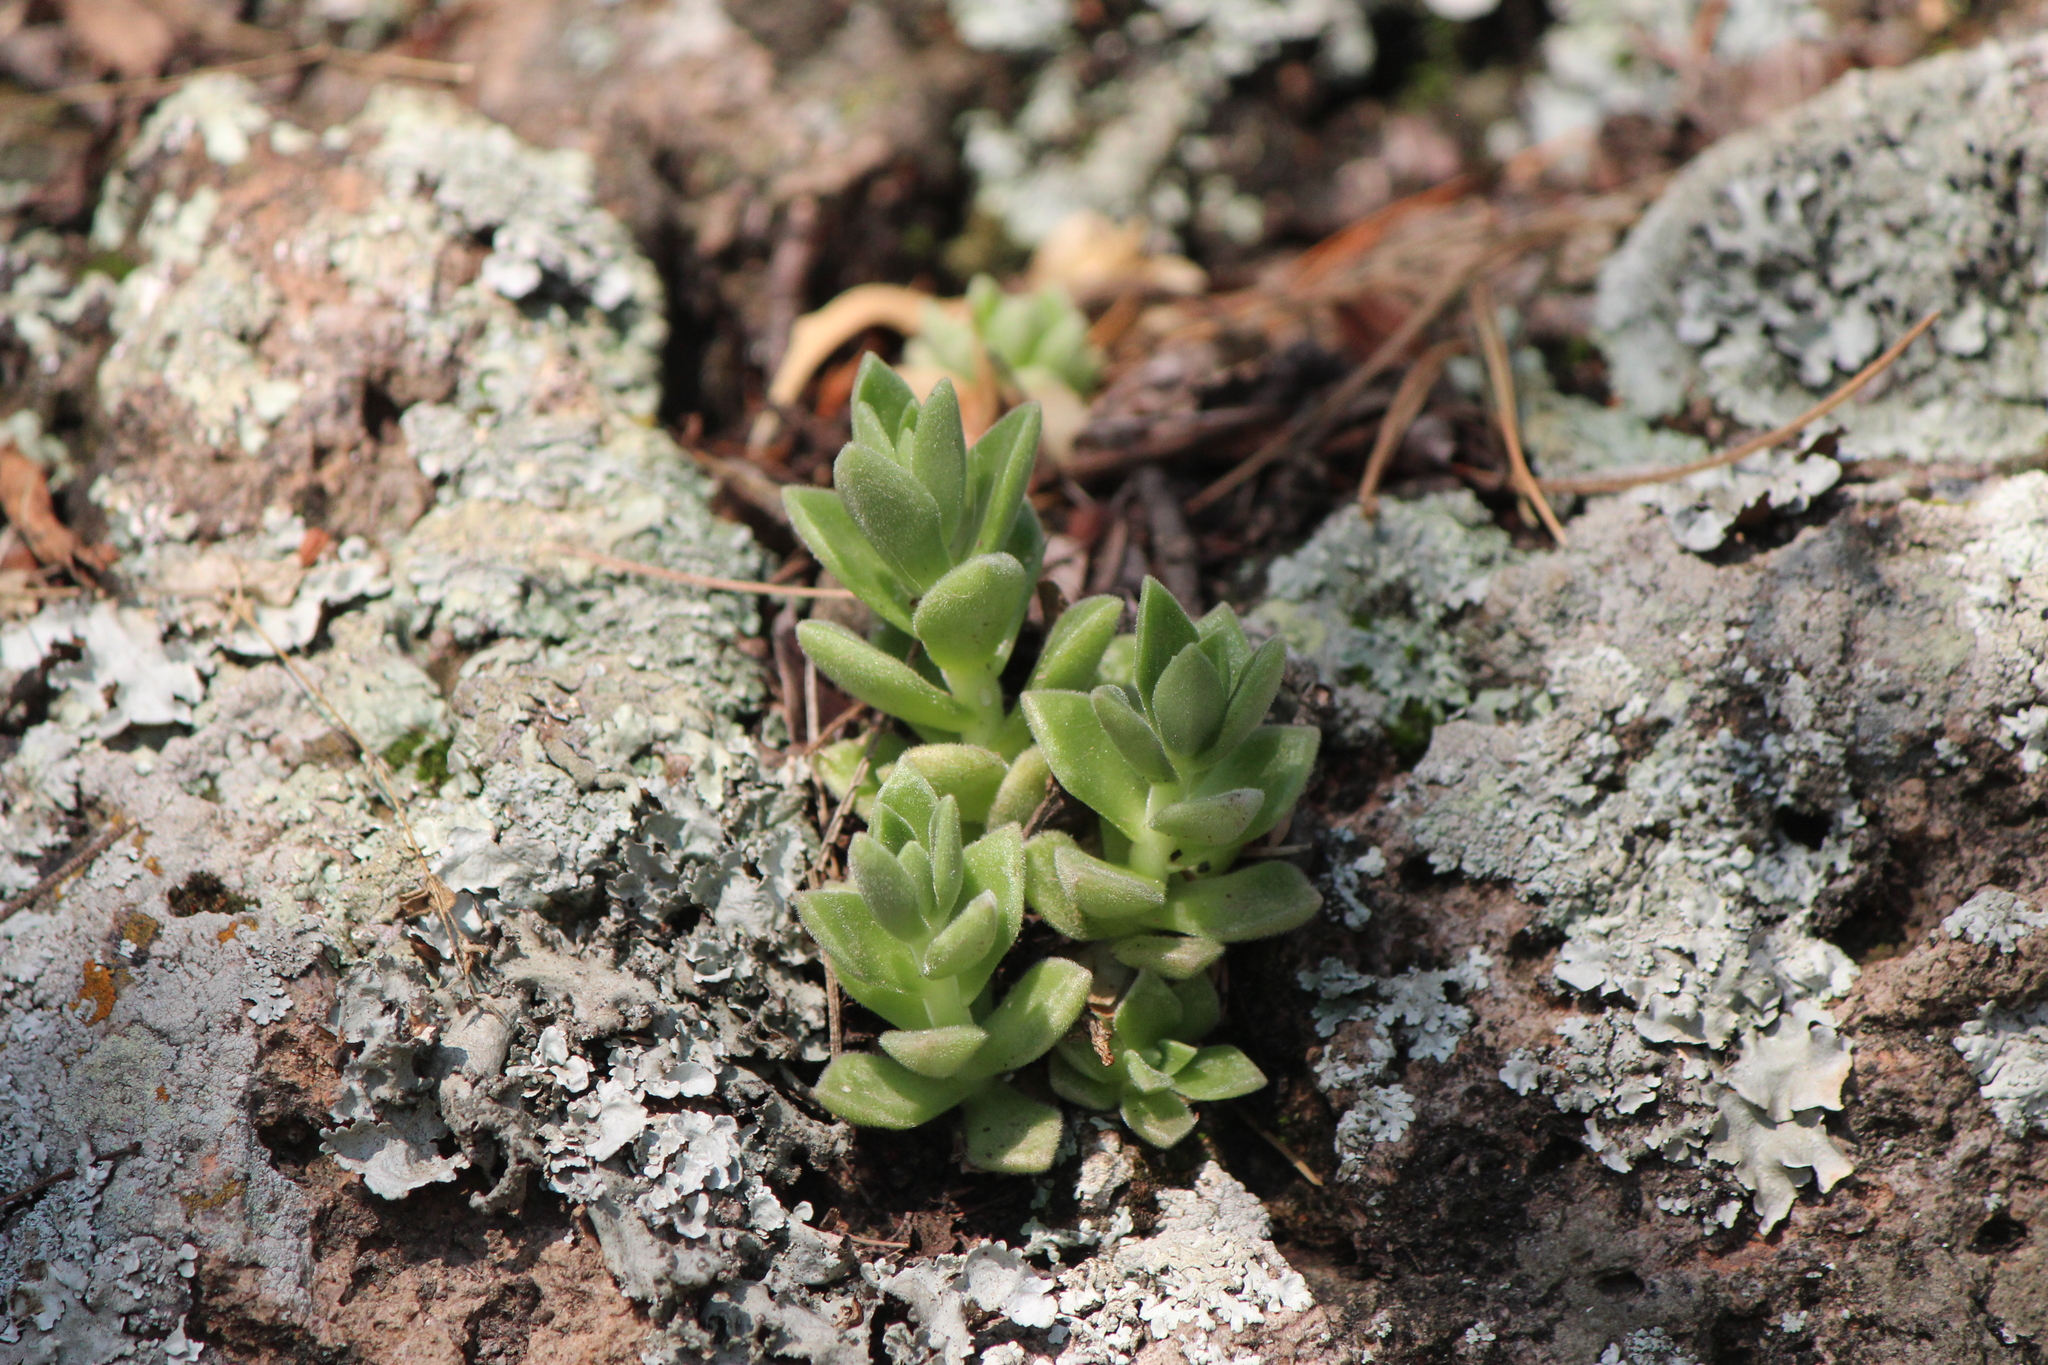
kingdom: Plantae
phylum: Tracheophyta
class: Magnoliopsida
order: Saxifragales
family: Crassulaceae
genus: Sedum
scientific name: Sedum ebracteatum
